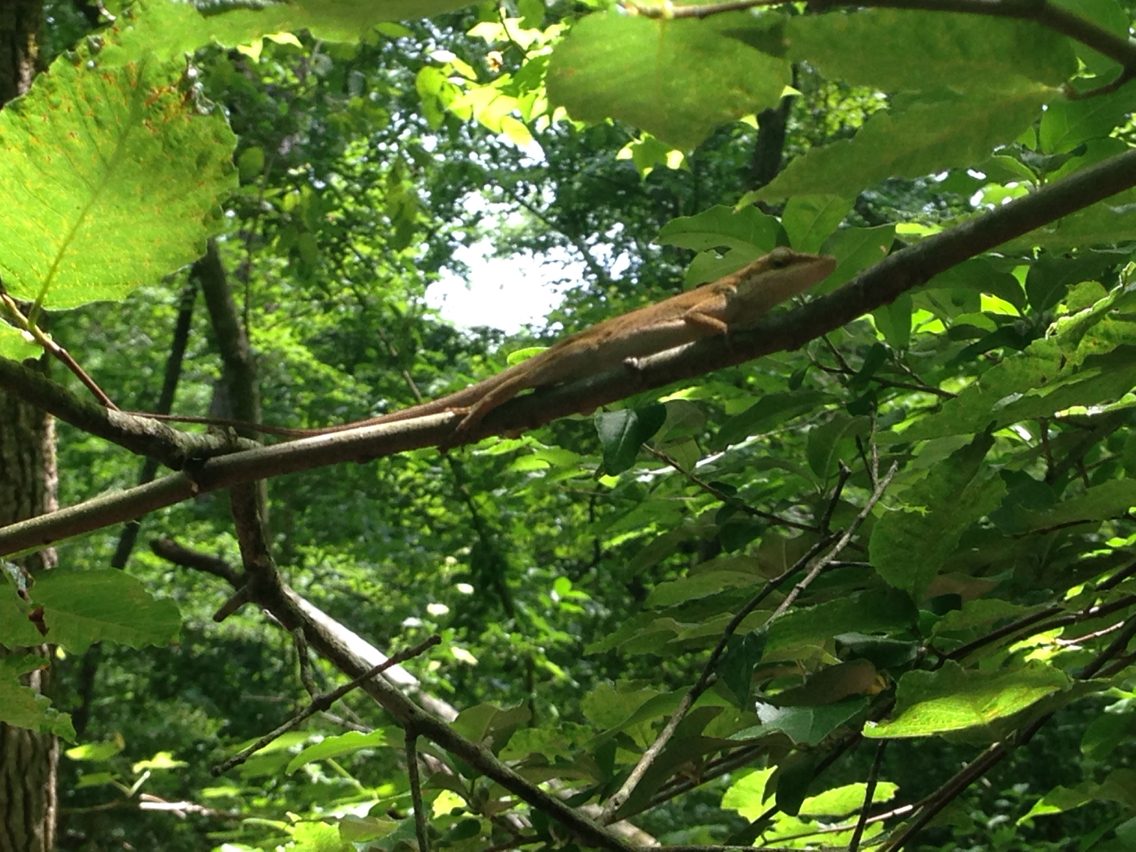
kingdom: Animalia
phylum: Chordata
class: Squamata
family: Dactyloidae
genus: Anolis
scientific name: Anolis carolinensis
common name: Green anole
